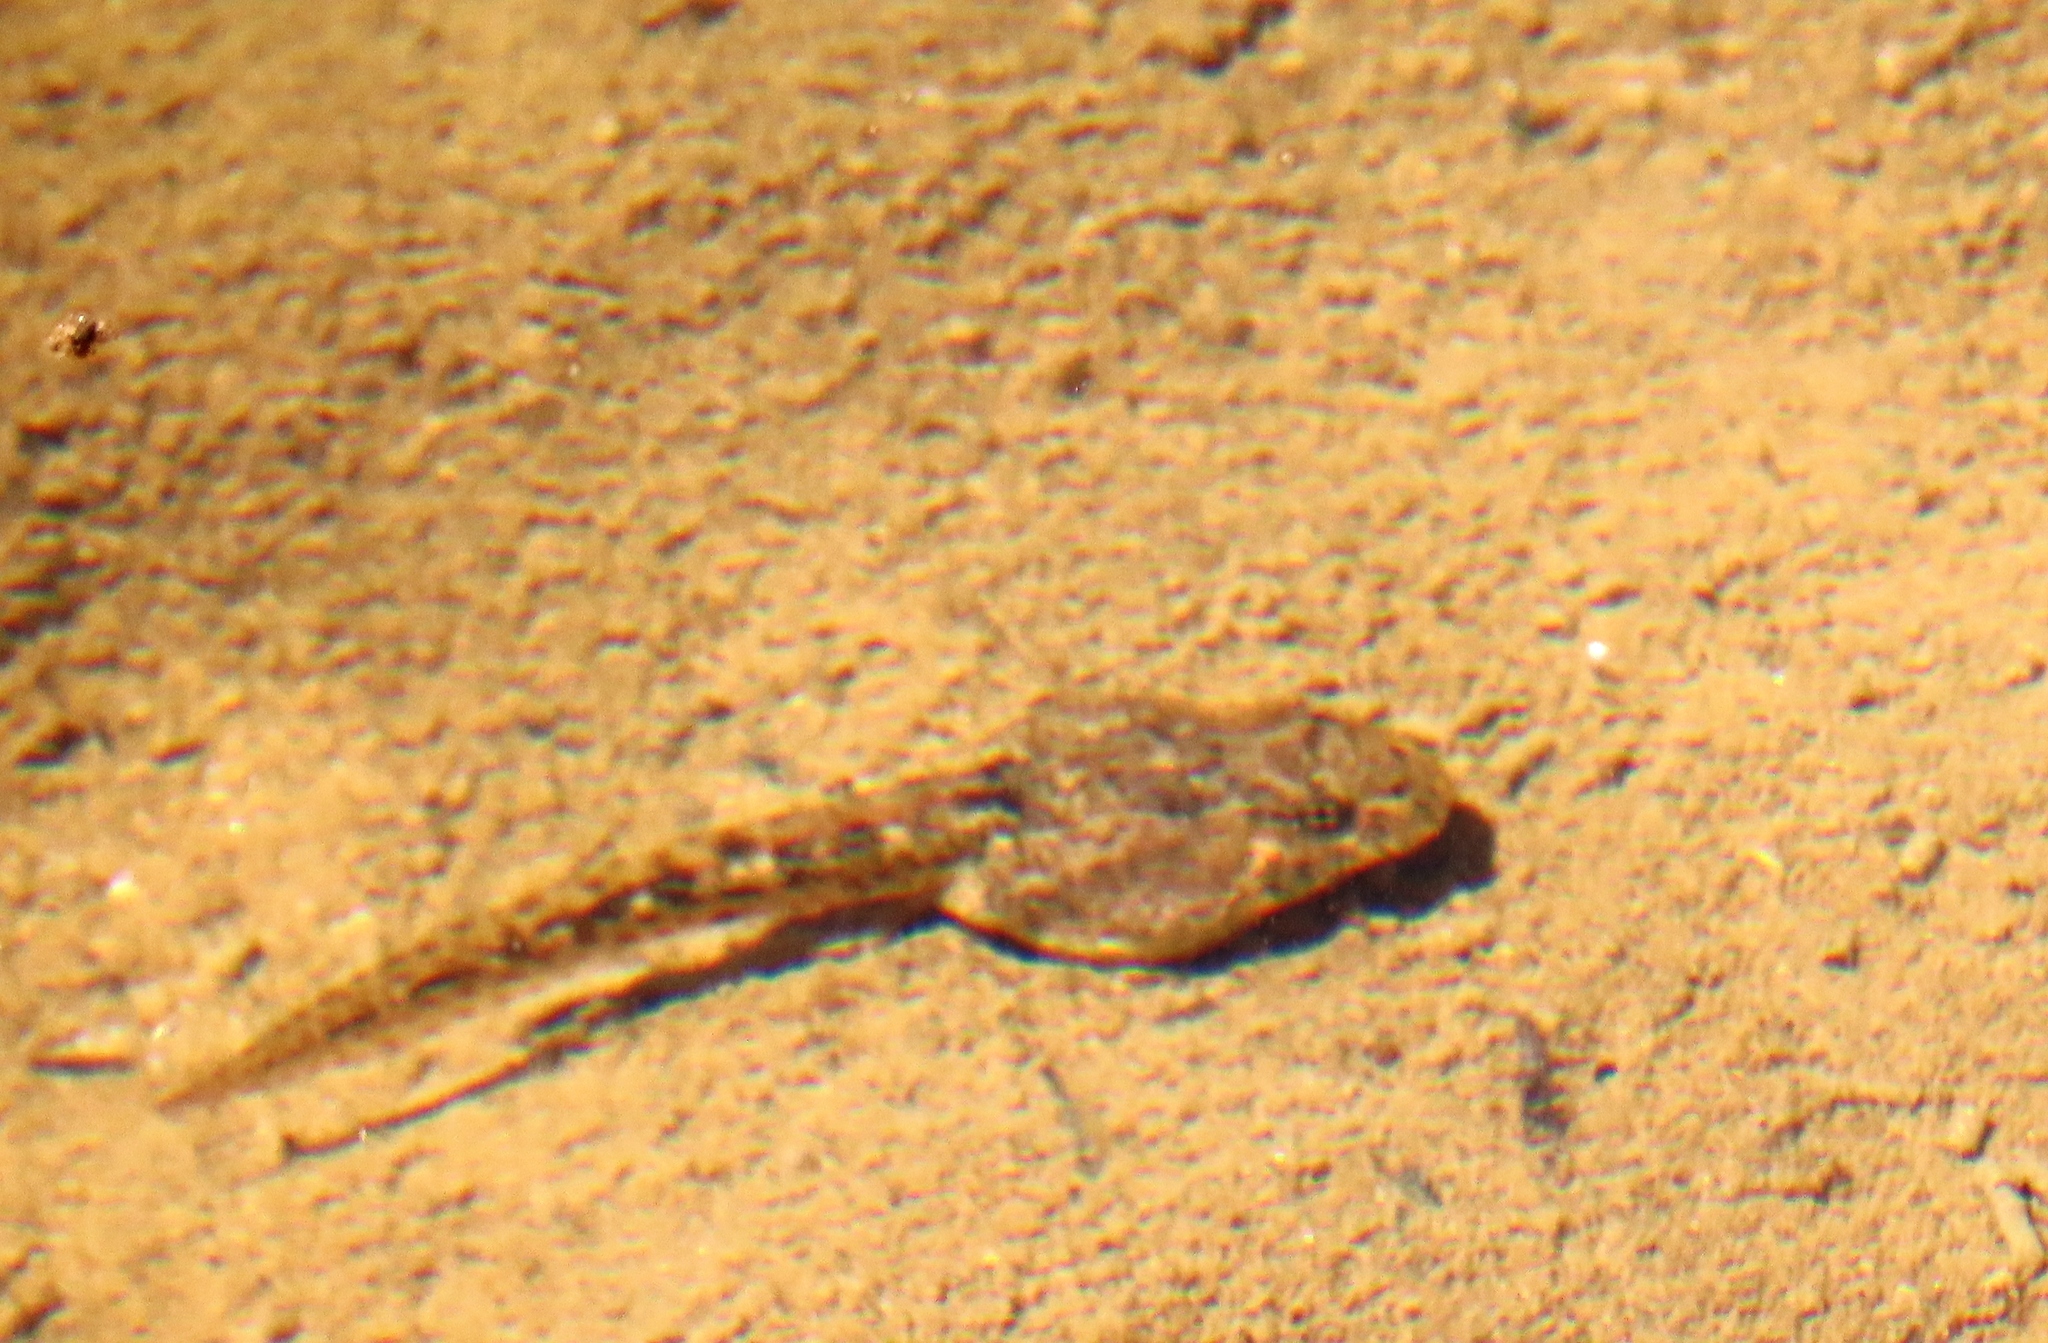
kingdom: Animalia
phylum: Chordata
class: Amphibia
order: Anura
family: Pyxicephalidae
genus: Amietia
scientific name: Amietia fuscigula
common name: Cape rana
